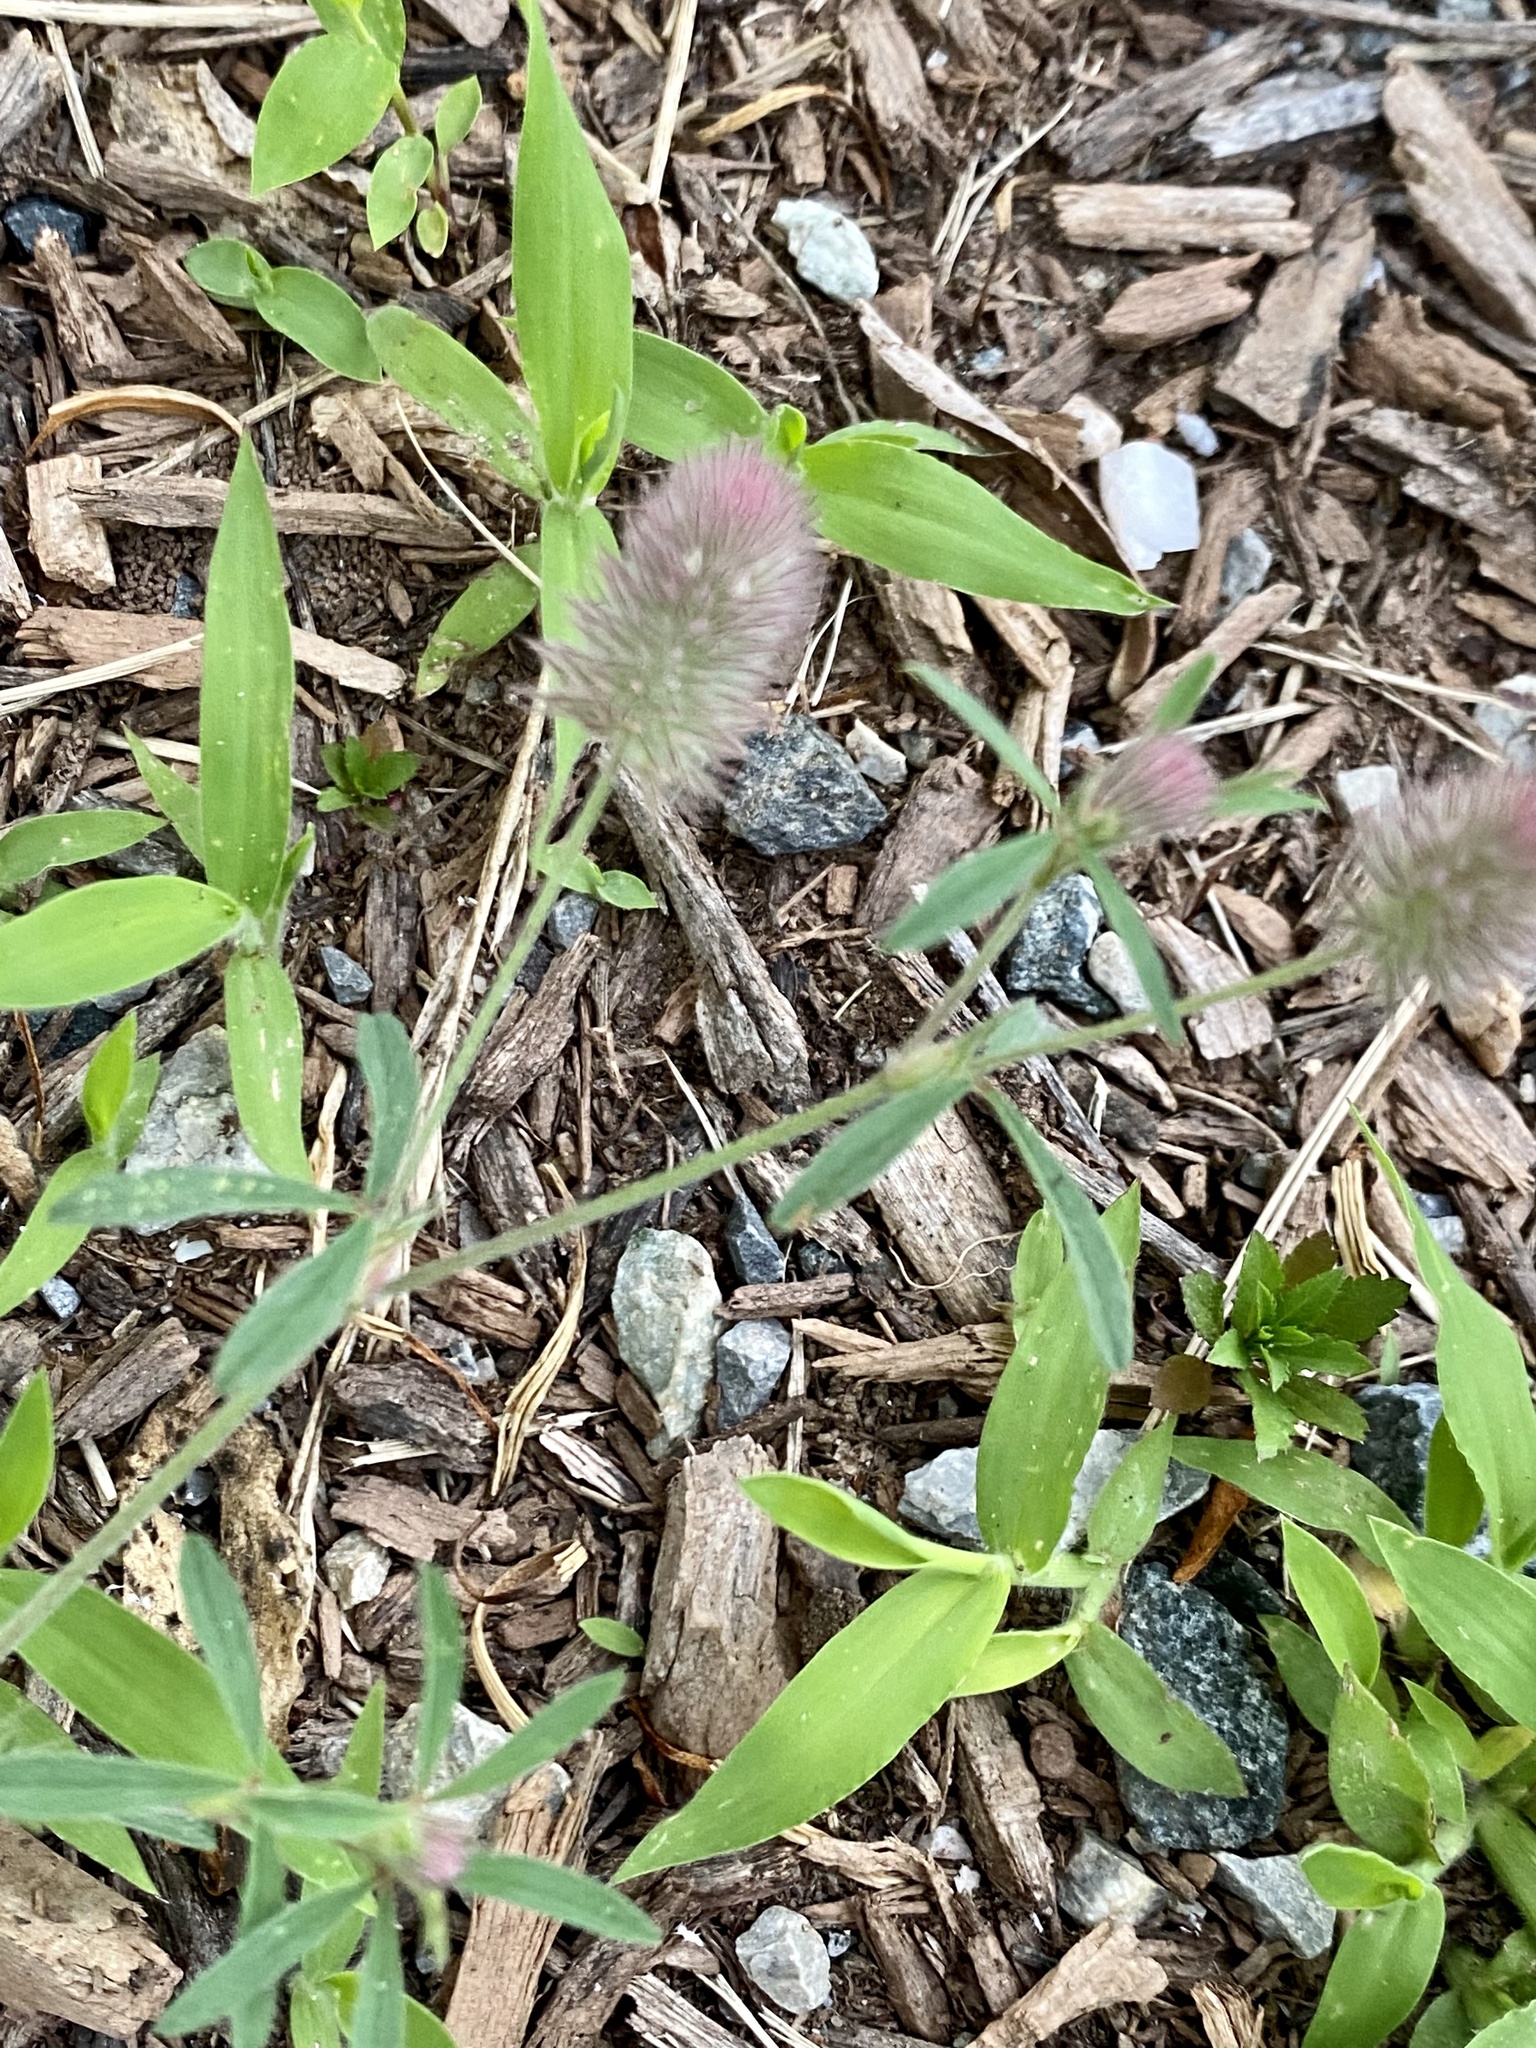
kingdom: Plantae
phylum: Tracheophyta
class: Magnoliopsida
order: Fabales
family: Fabaceae
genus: Trifolium
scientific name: Trifolium arvense
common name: Hare's-foot clover
